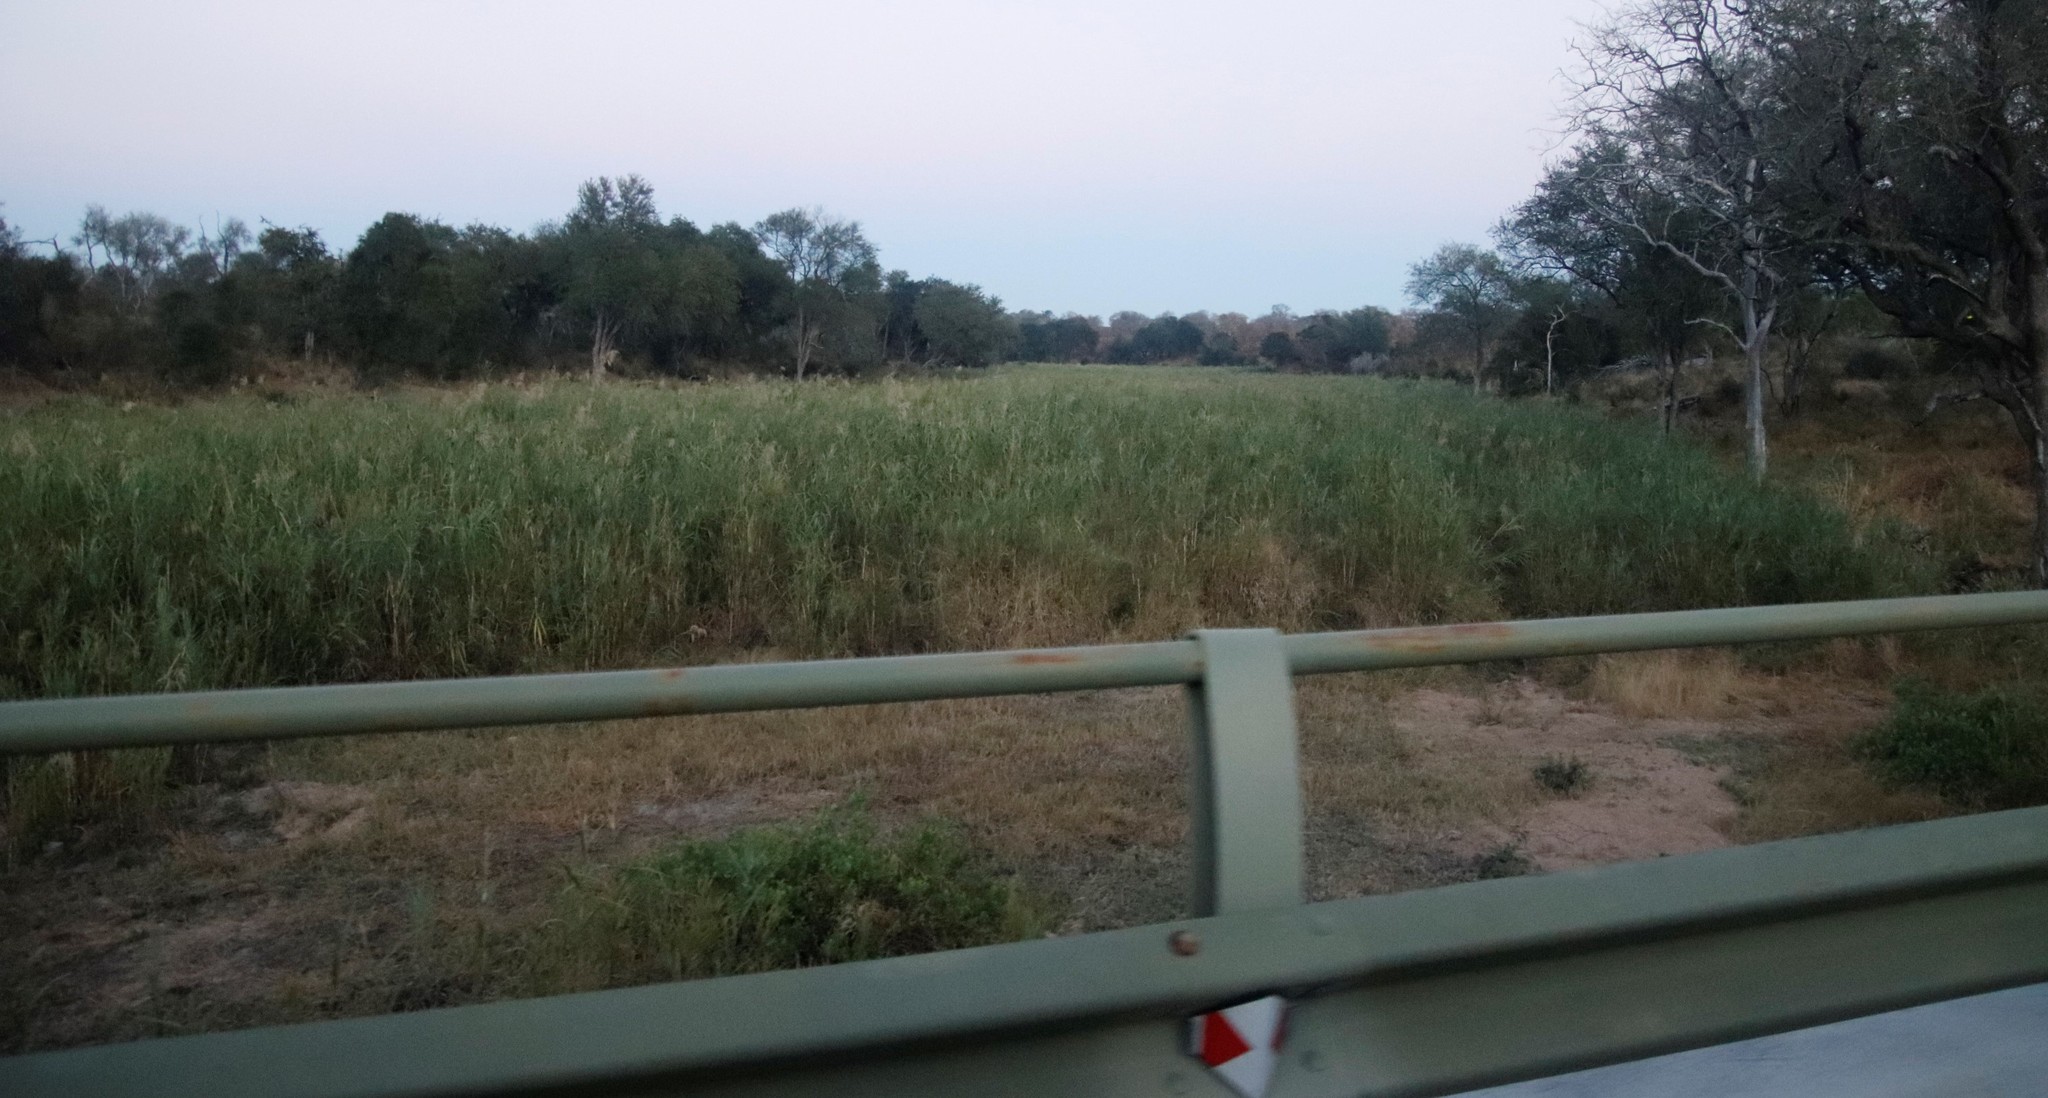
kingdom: Plantae
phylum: Tracheophyta
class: Liliopsida
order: Poales
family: Poaceae
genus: Phragmites
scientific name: Phragmites mauritianus
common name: Reed grass
